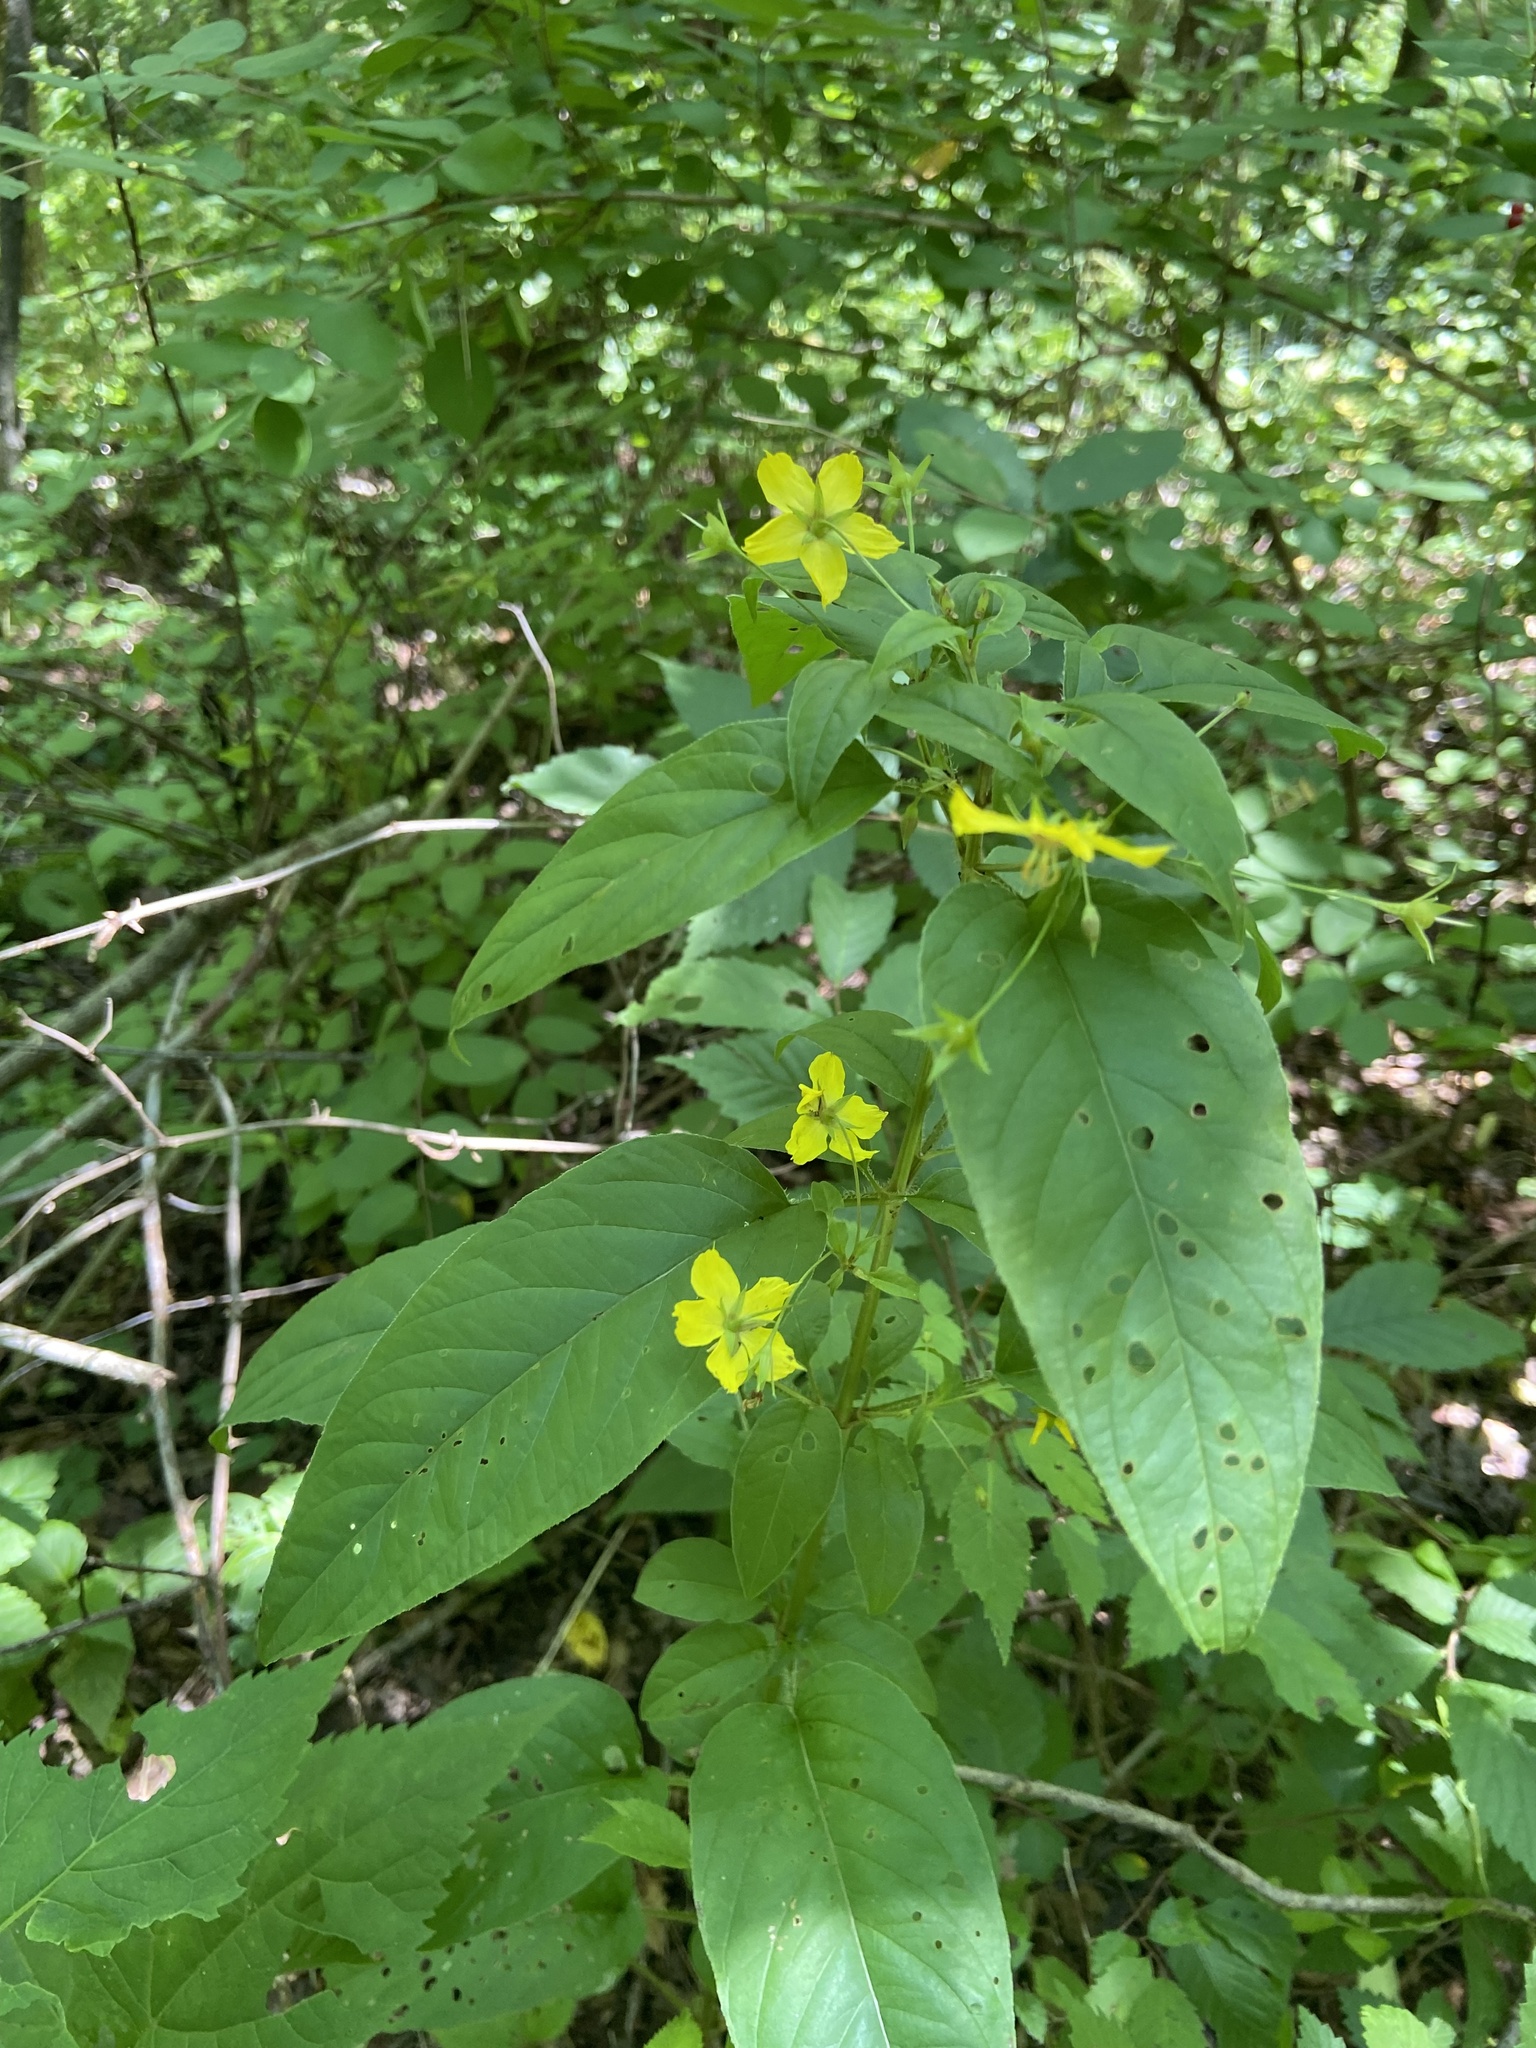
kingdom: Plantae
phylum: Tracheophyta
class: Magnoliopsida
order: Ericales
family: Primulaceae
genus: Lysimachia
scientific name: Lysimachia ciliata
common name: Fringed loosestrife
